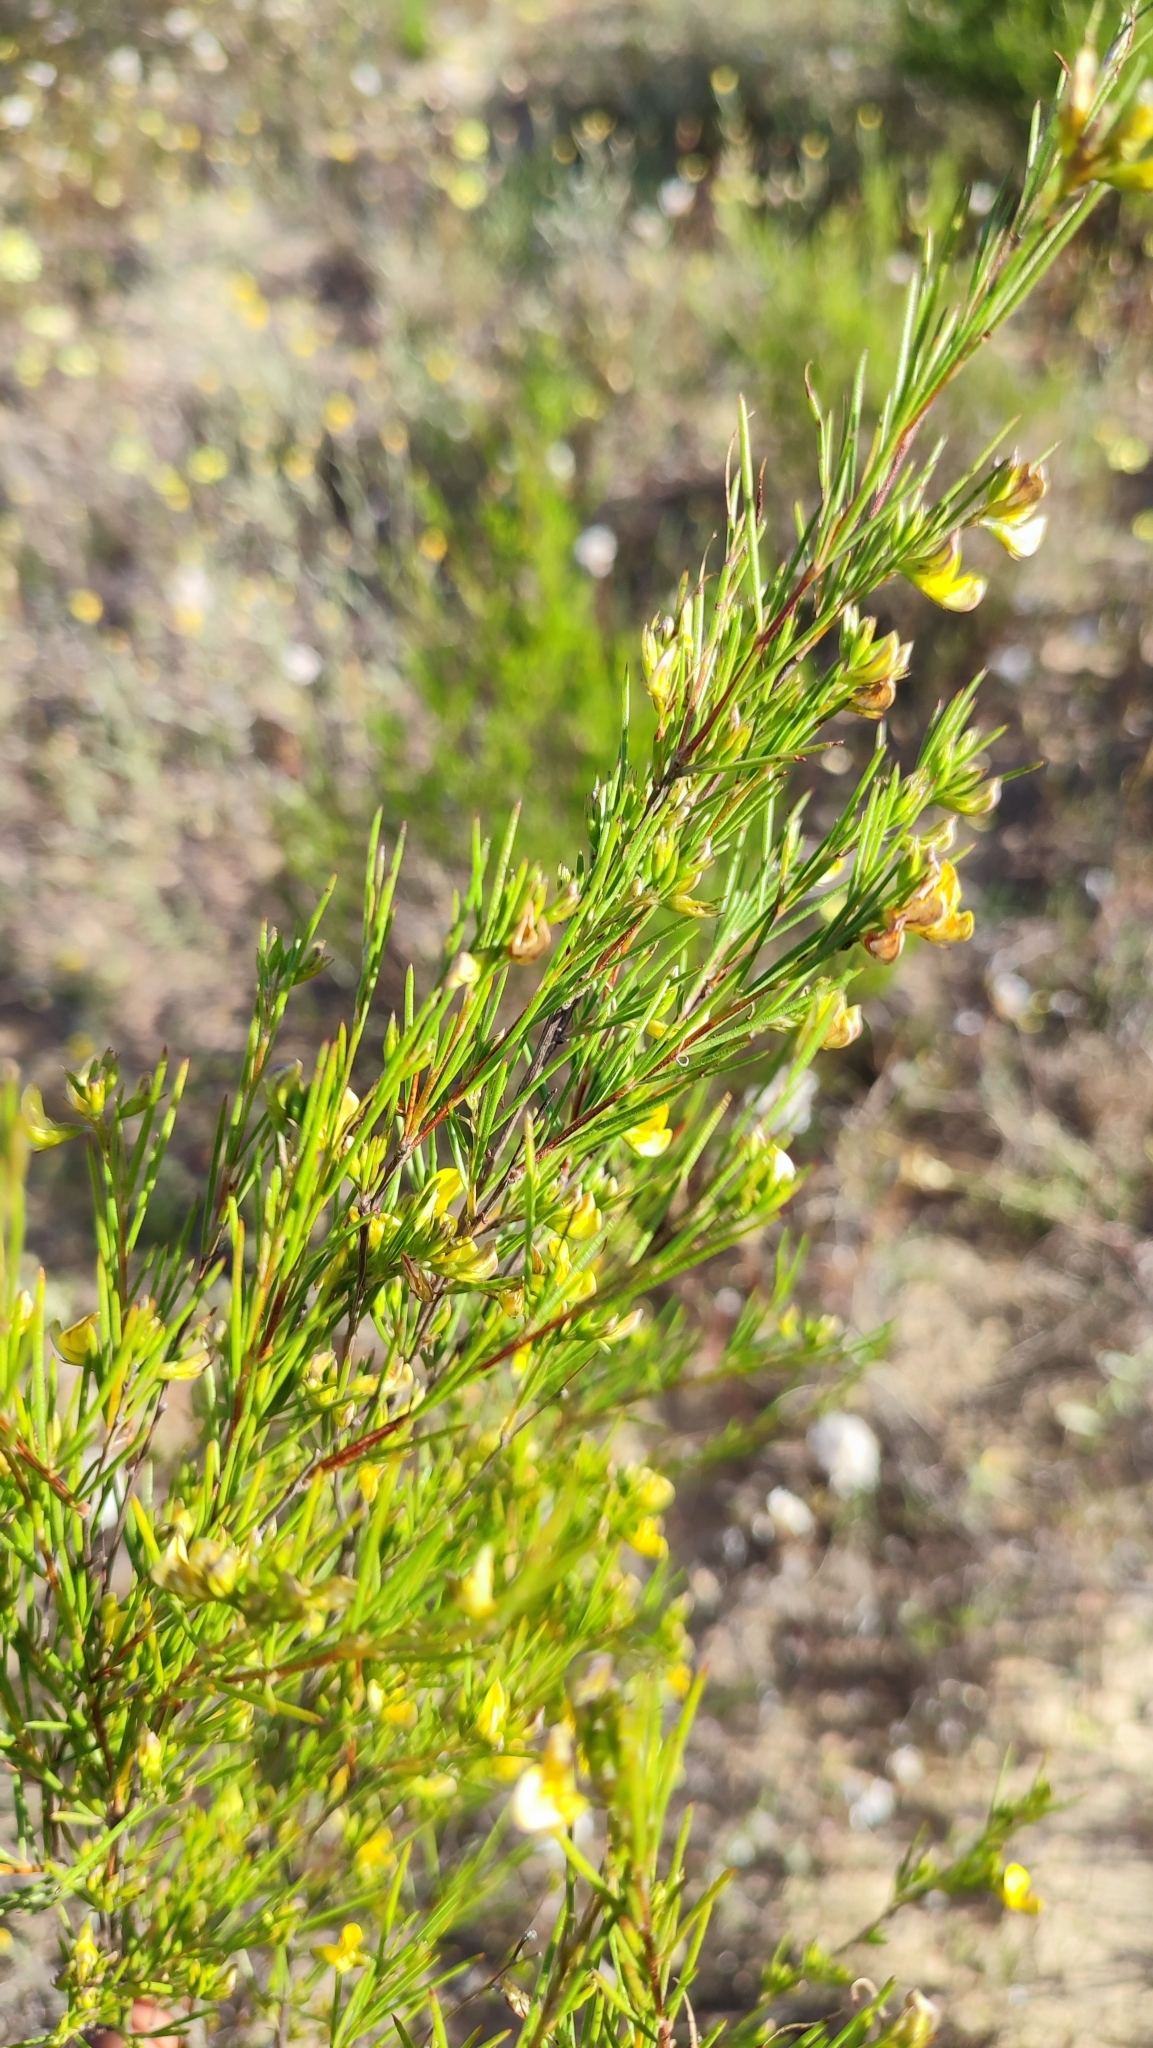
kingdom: Plantae
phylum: Tracheophyta
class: Magnoliopsida
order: Fabales
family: Fabaceae
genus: Aspalathus
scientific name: Aspalathus linearis
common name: Rooibos-tea
